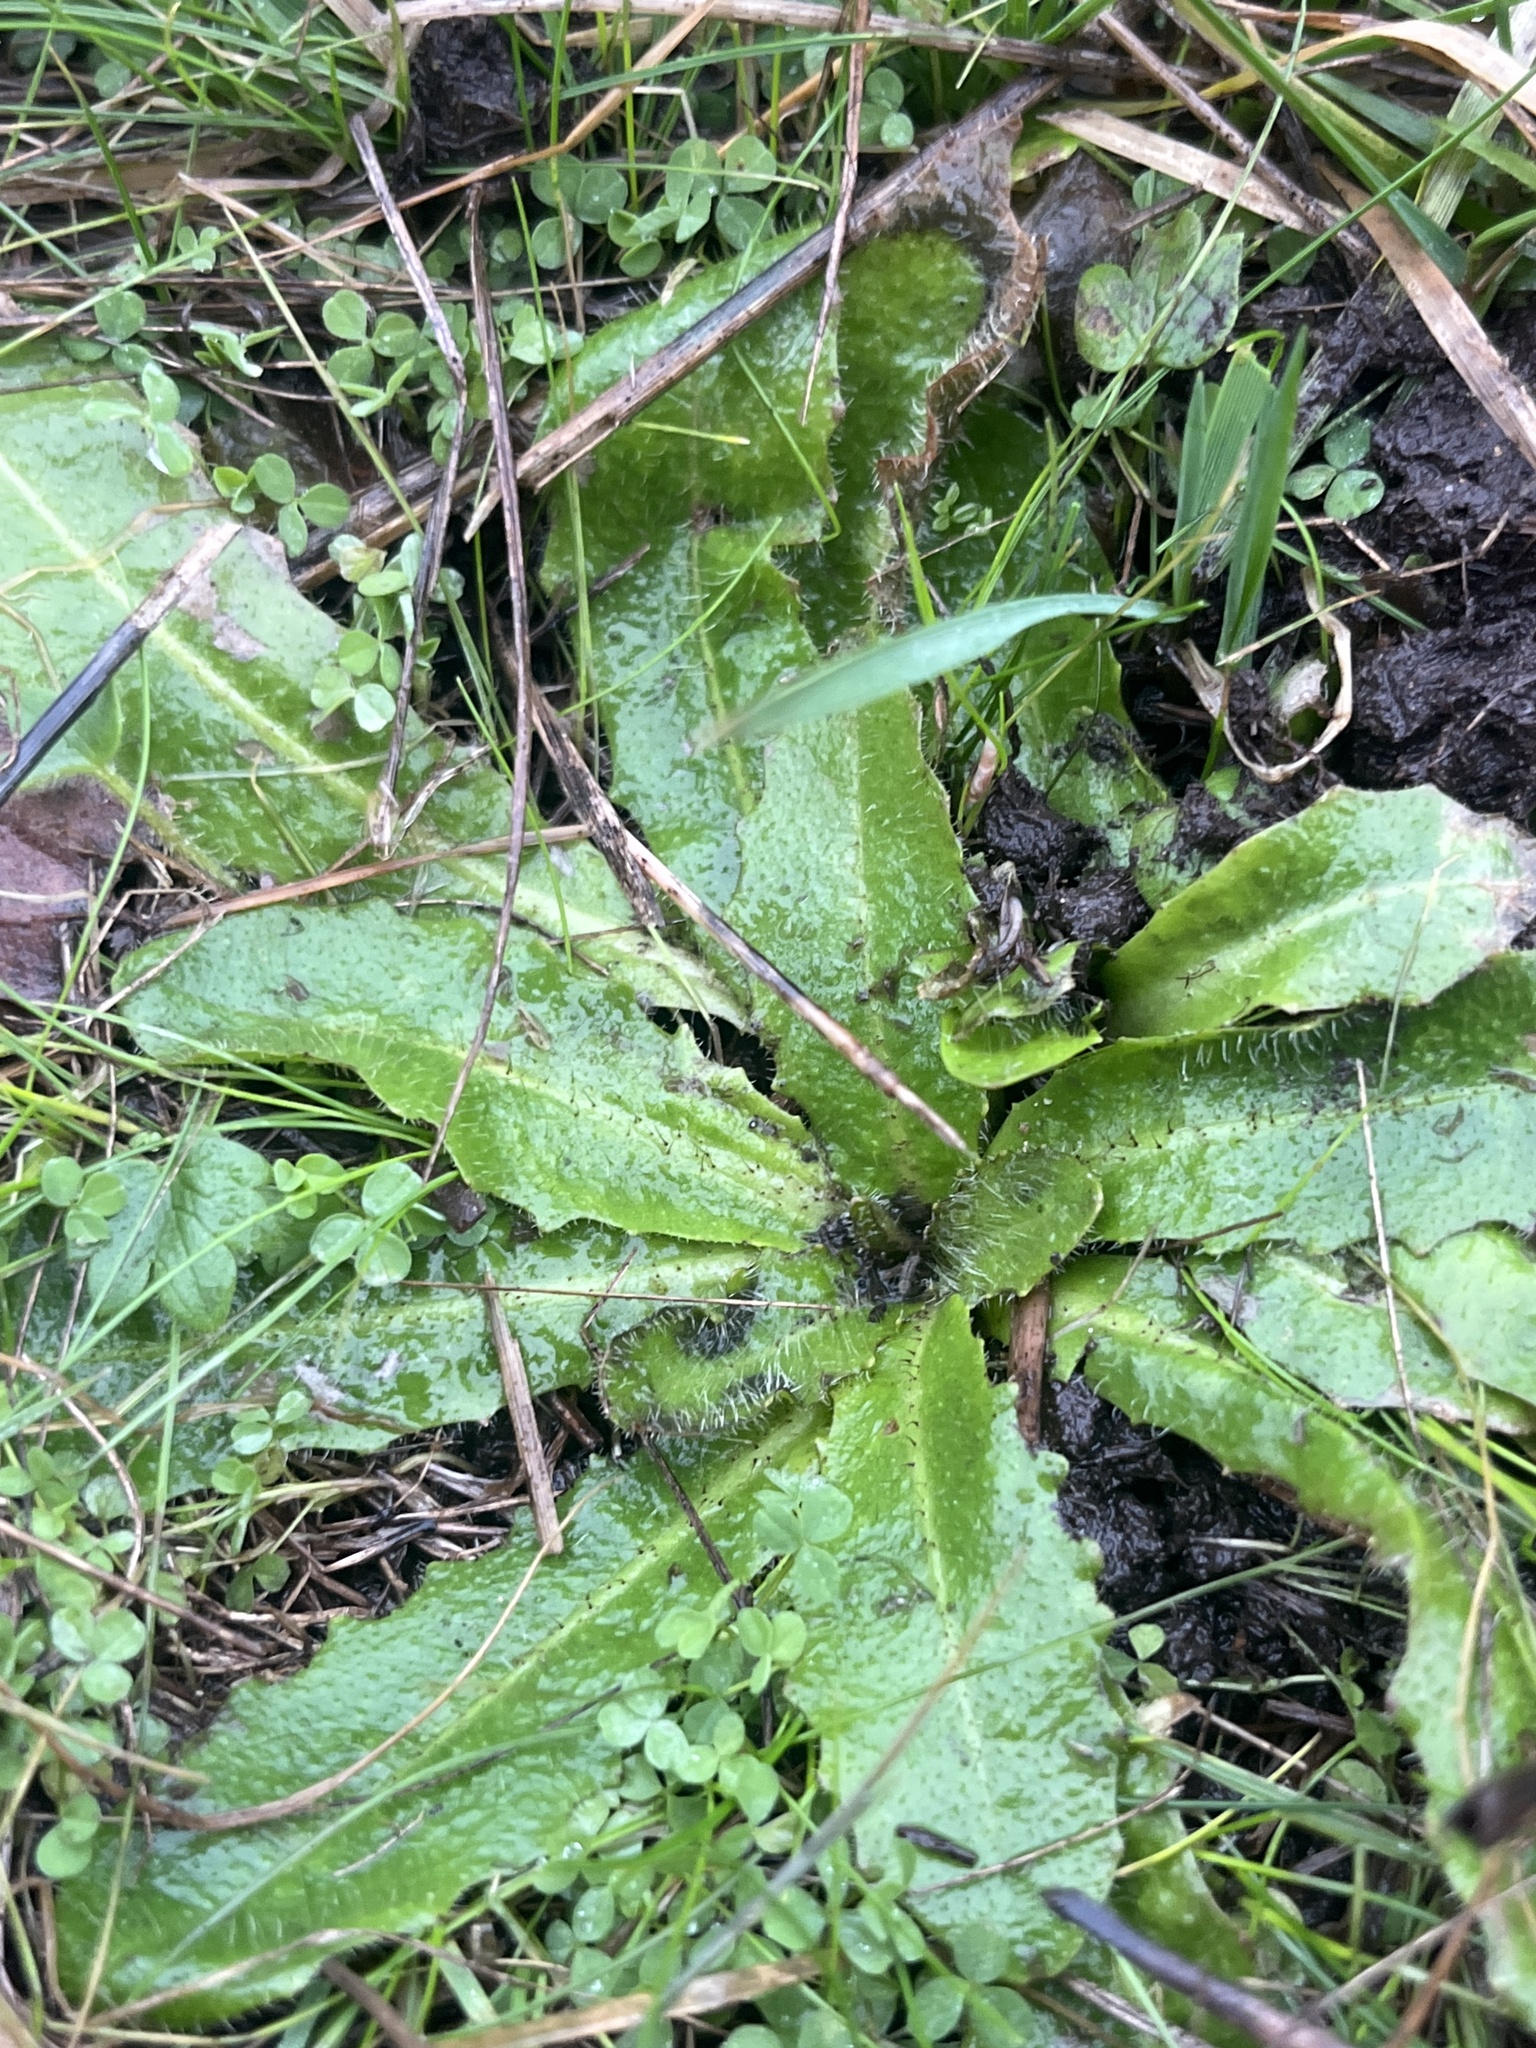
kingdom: Plantae
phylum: Tracheophyta
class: Magnoliopsida
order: Asterales
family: Asteraceae
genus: Hypochaeris
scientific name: Hypochaeris radicata
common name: Flatweed
